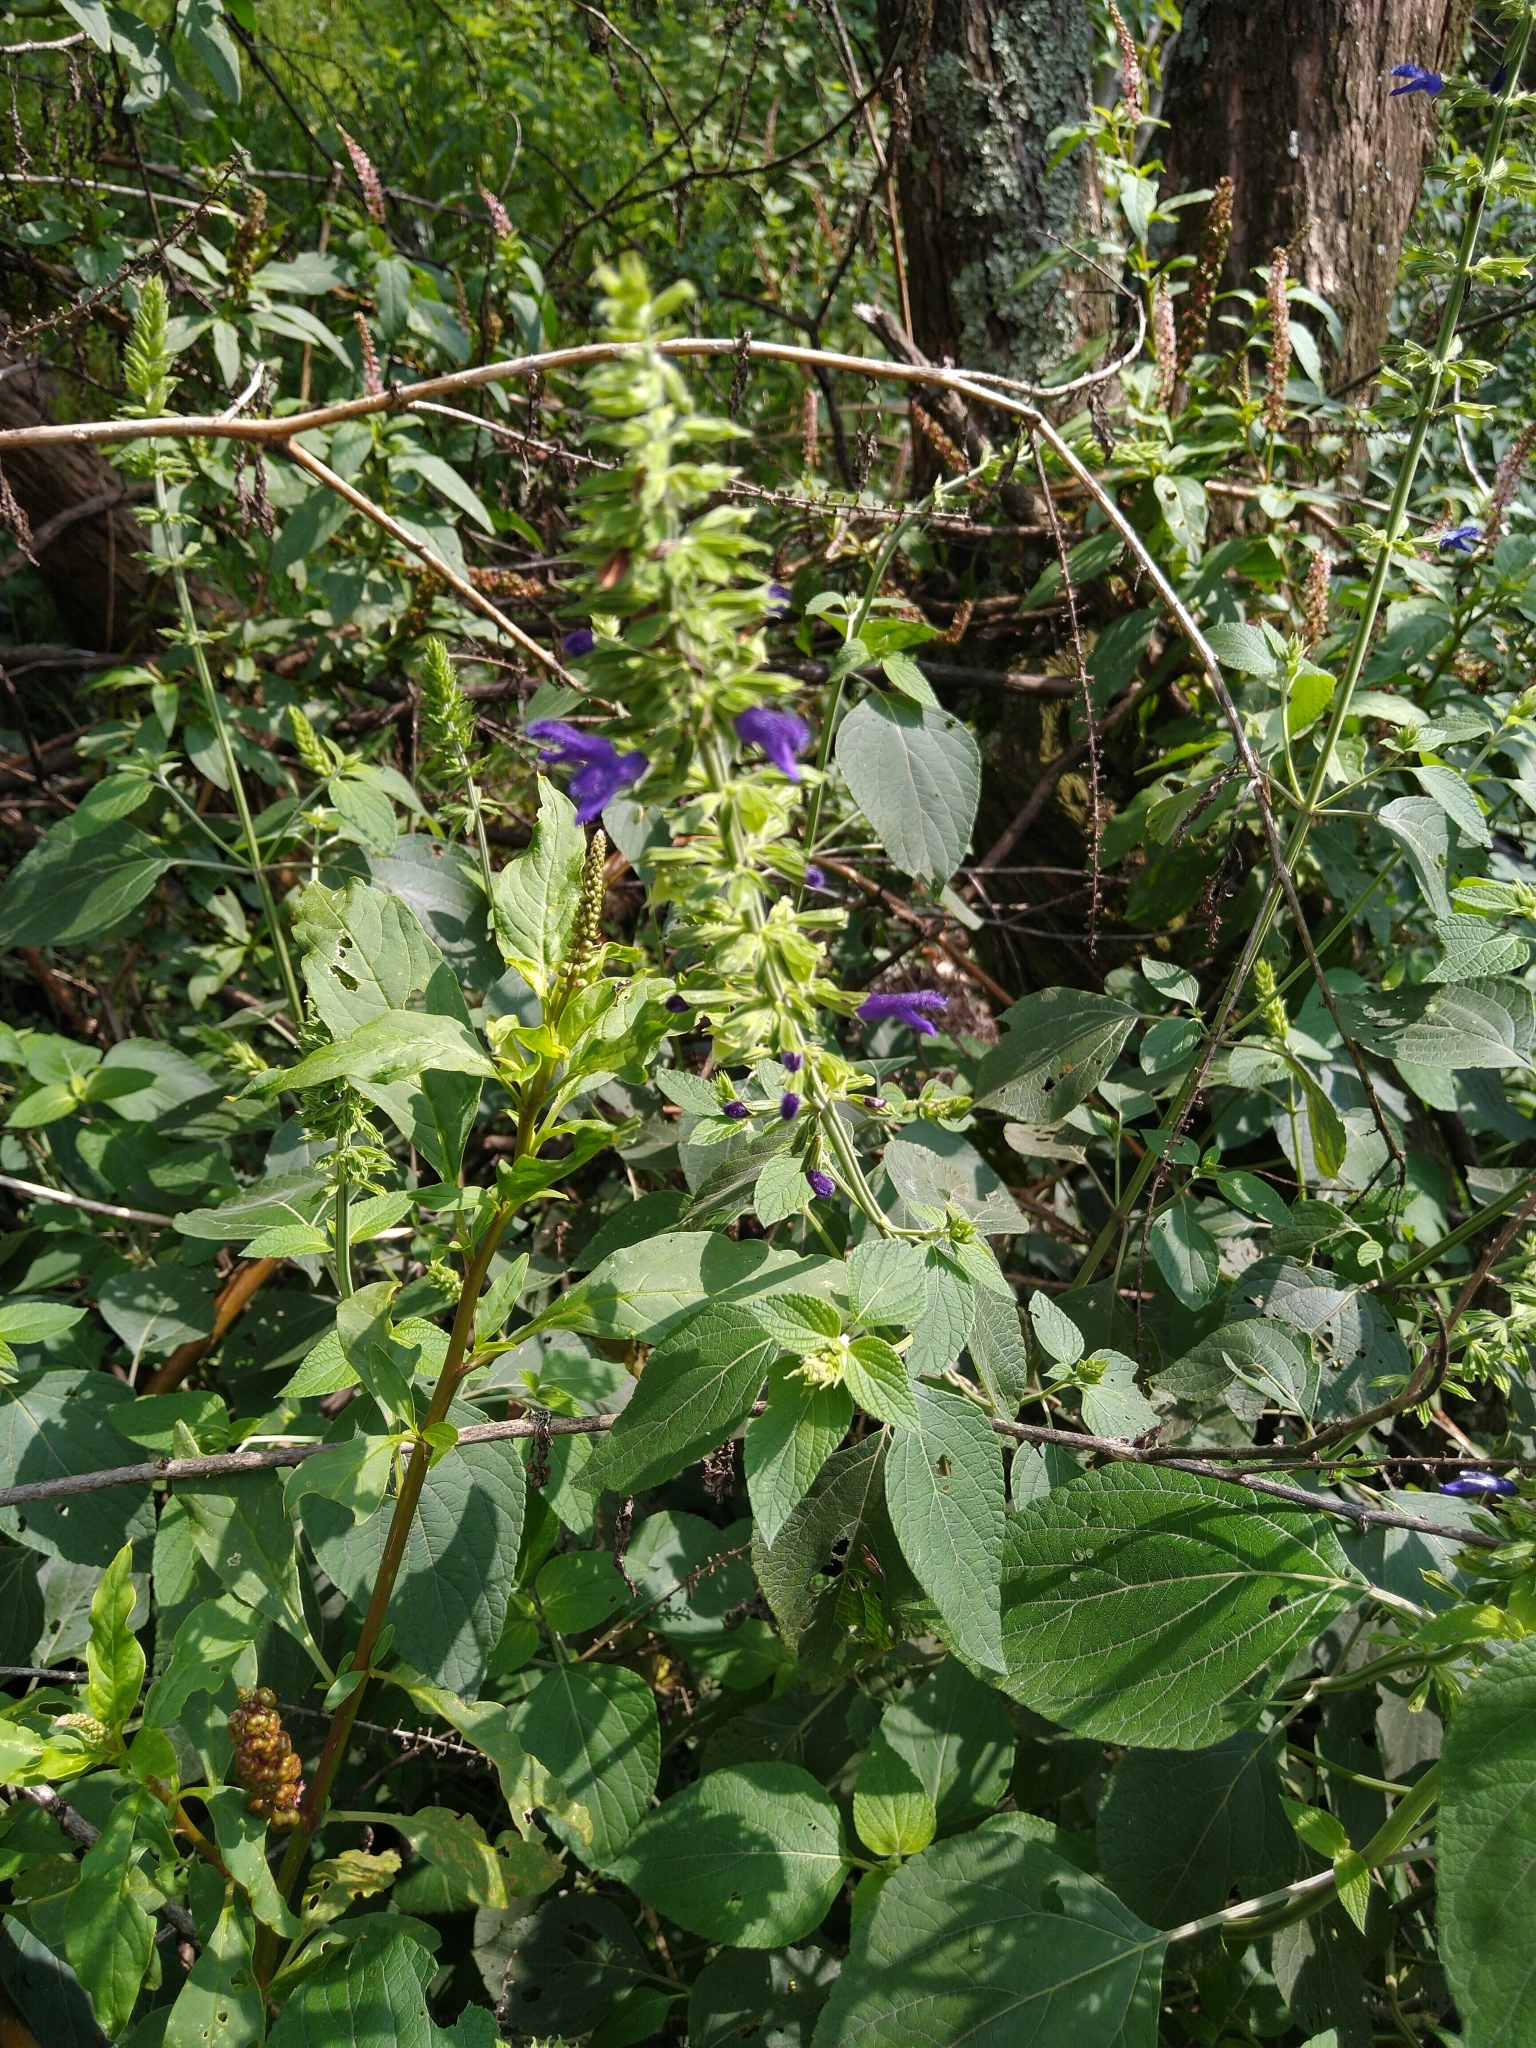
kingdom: Plantae
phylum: Tracheophyta
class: Magnoliopsida
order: Lamiales
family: Lamiaceae
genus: Salvia
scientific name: Salvia mexicana
